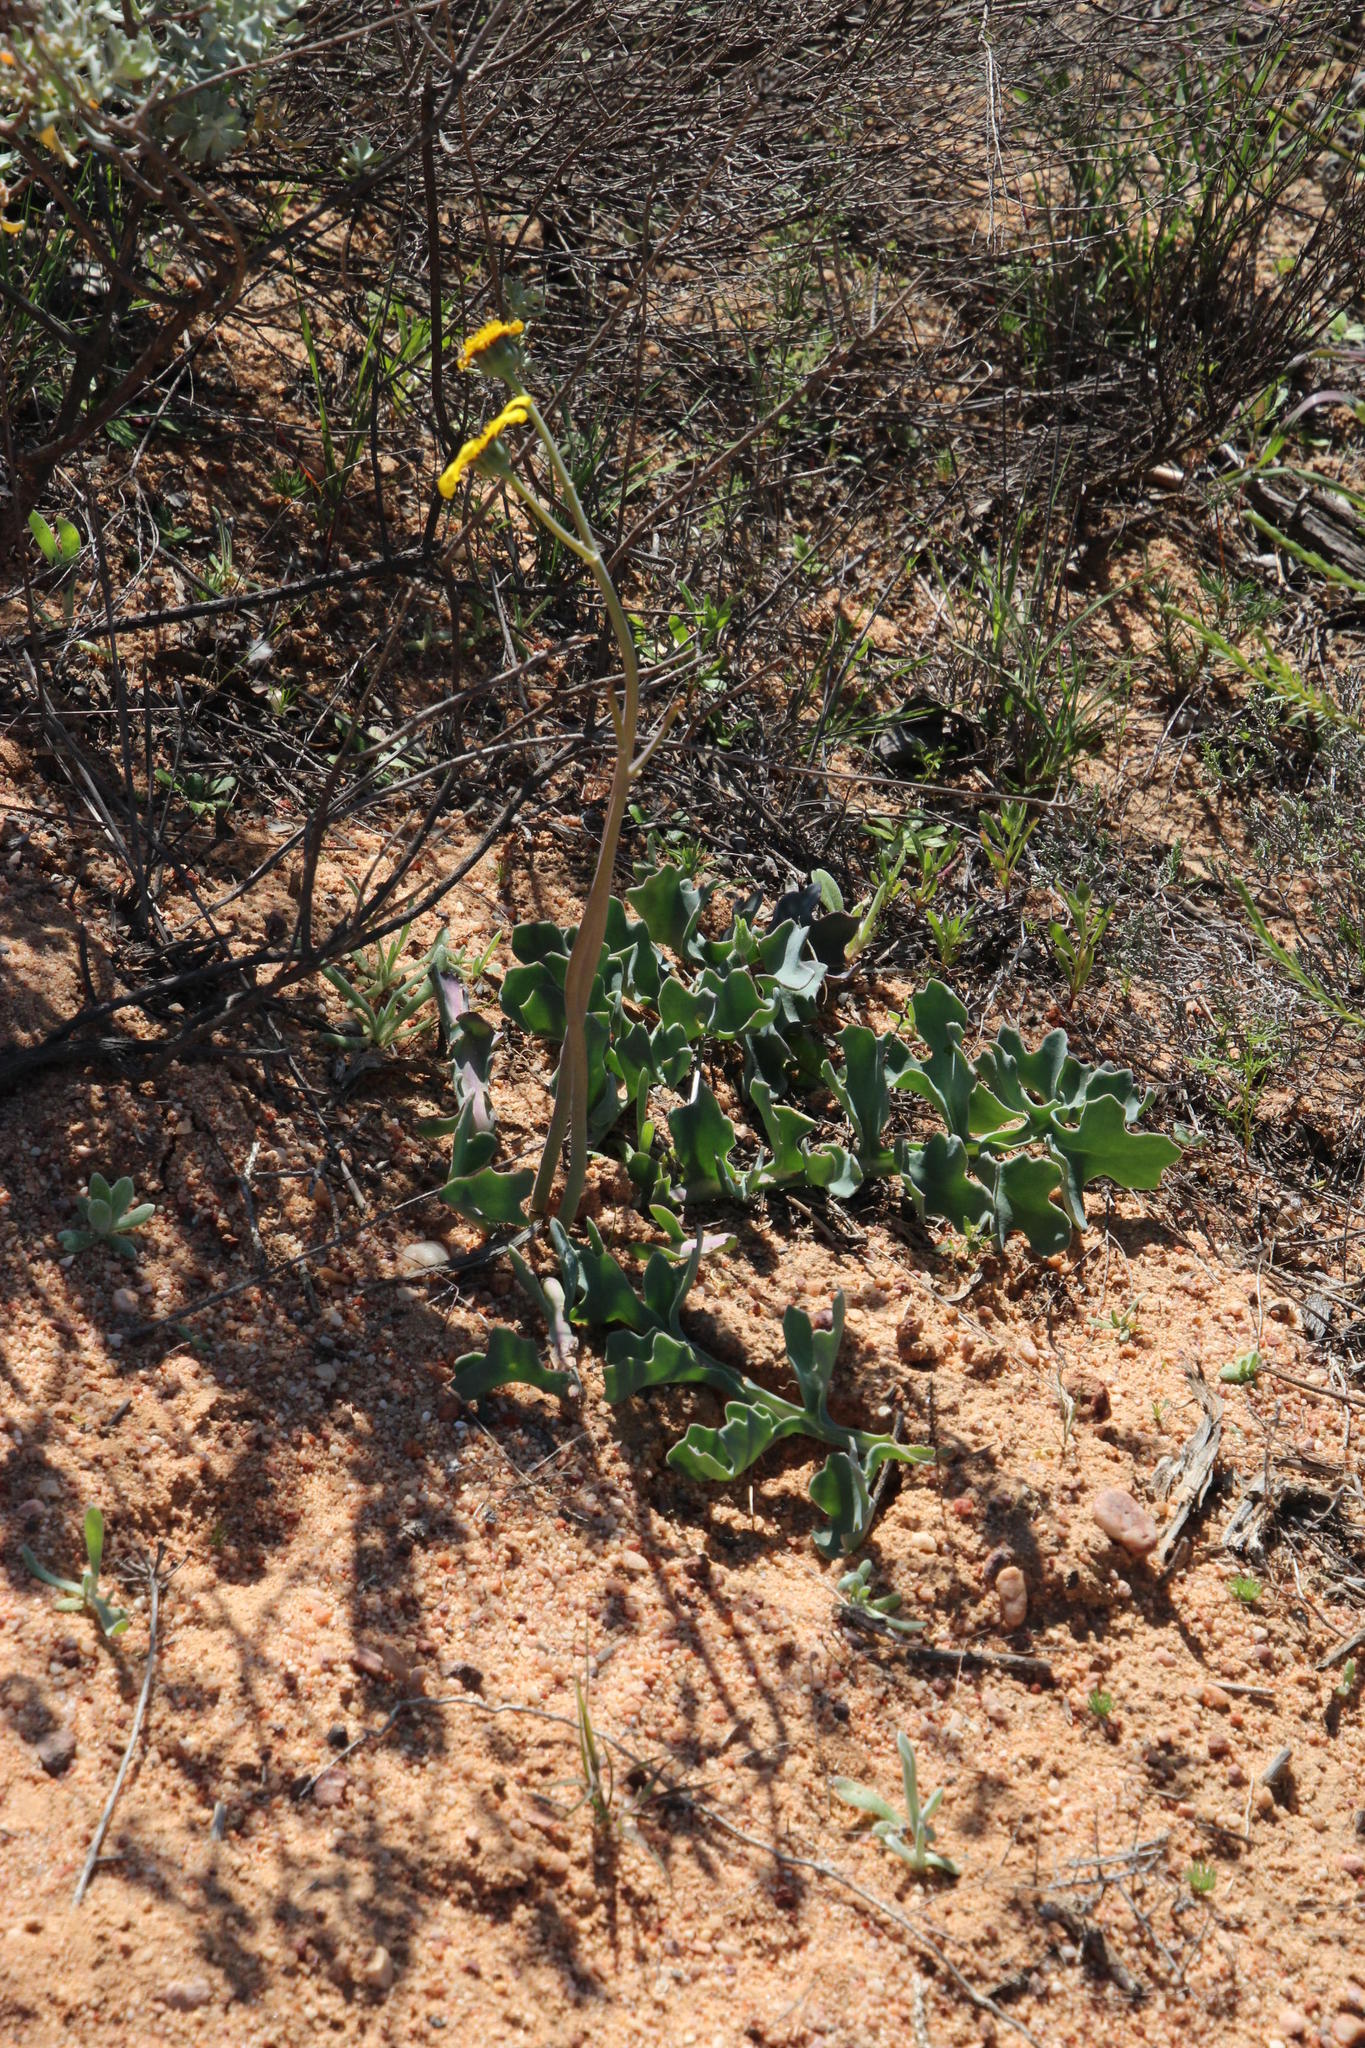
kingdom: Plantae
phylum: Tracheophyta
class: Magnoliopsida
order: Asterales
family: Asteraceae
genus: Othonna
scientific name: Othonna rotundiloba
